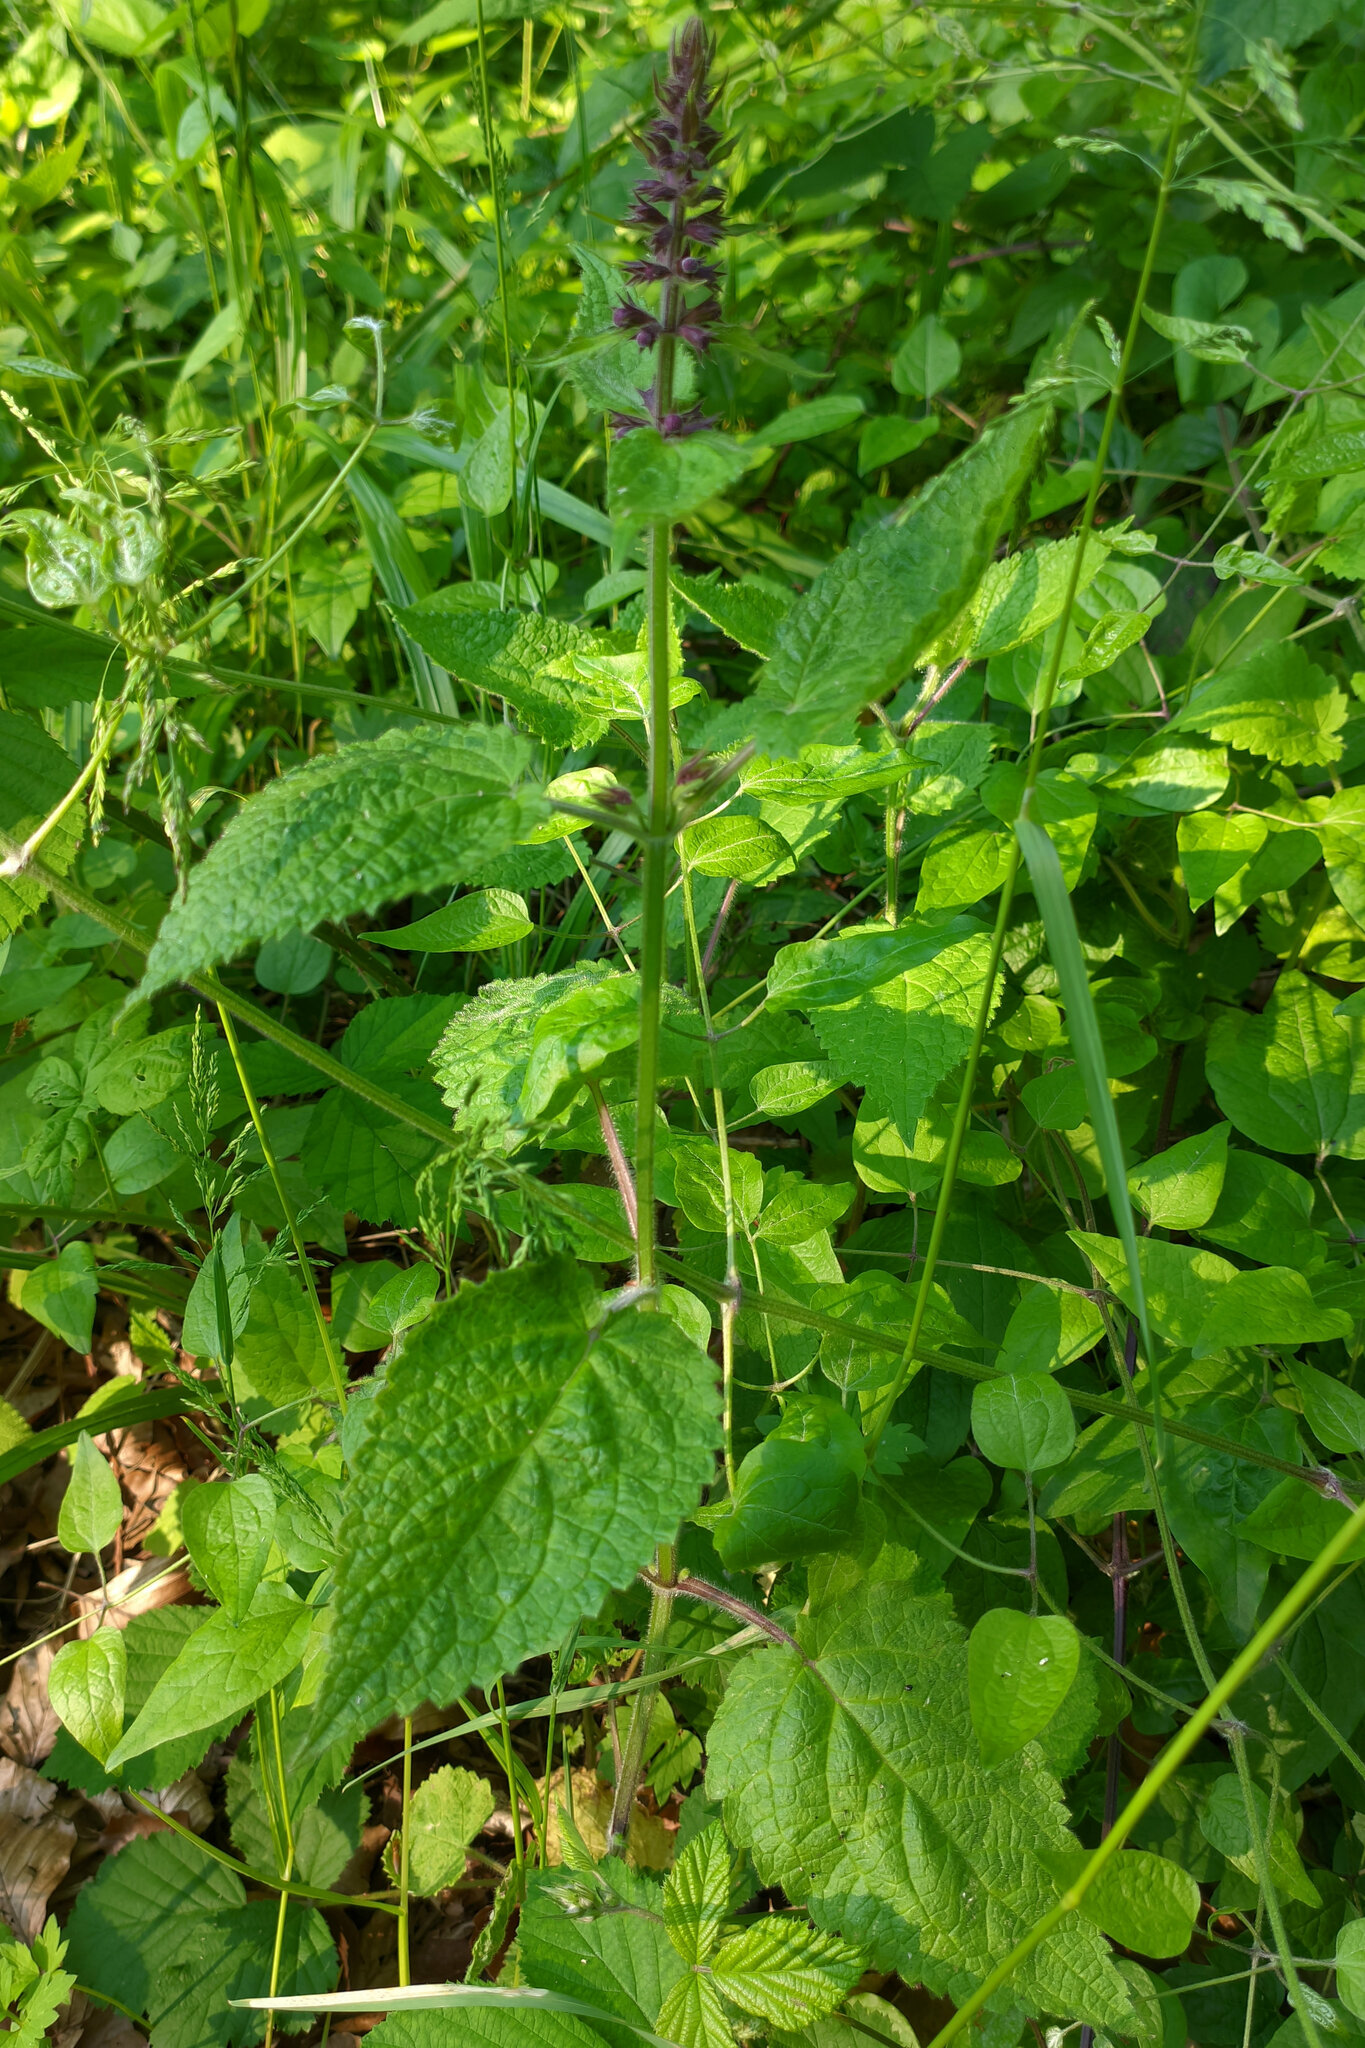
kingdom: Plantae
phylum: Tracheophyta
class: Magnoliopsida
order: Lamiales
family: Lamiaceae
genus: Stachys
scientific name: Stachys sylvatica
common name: Hedge woundwort
